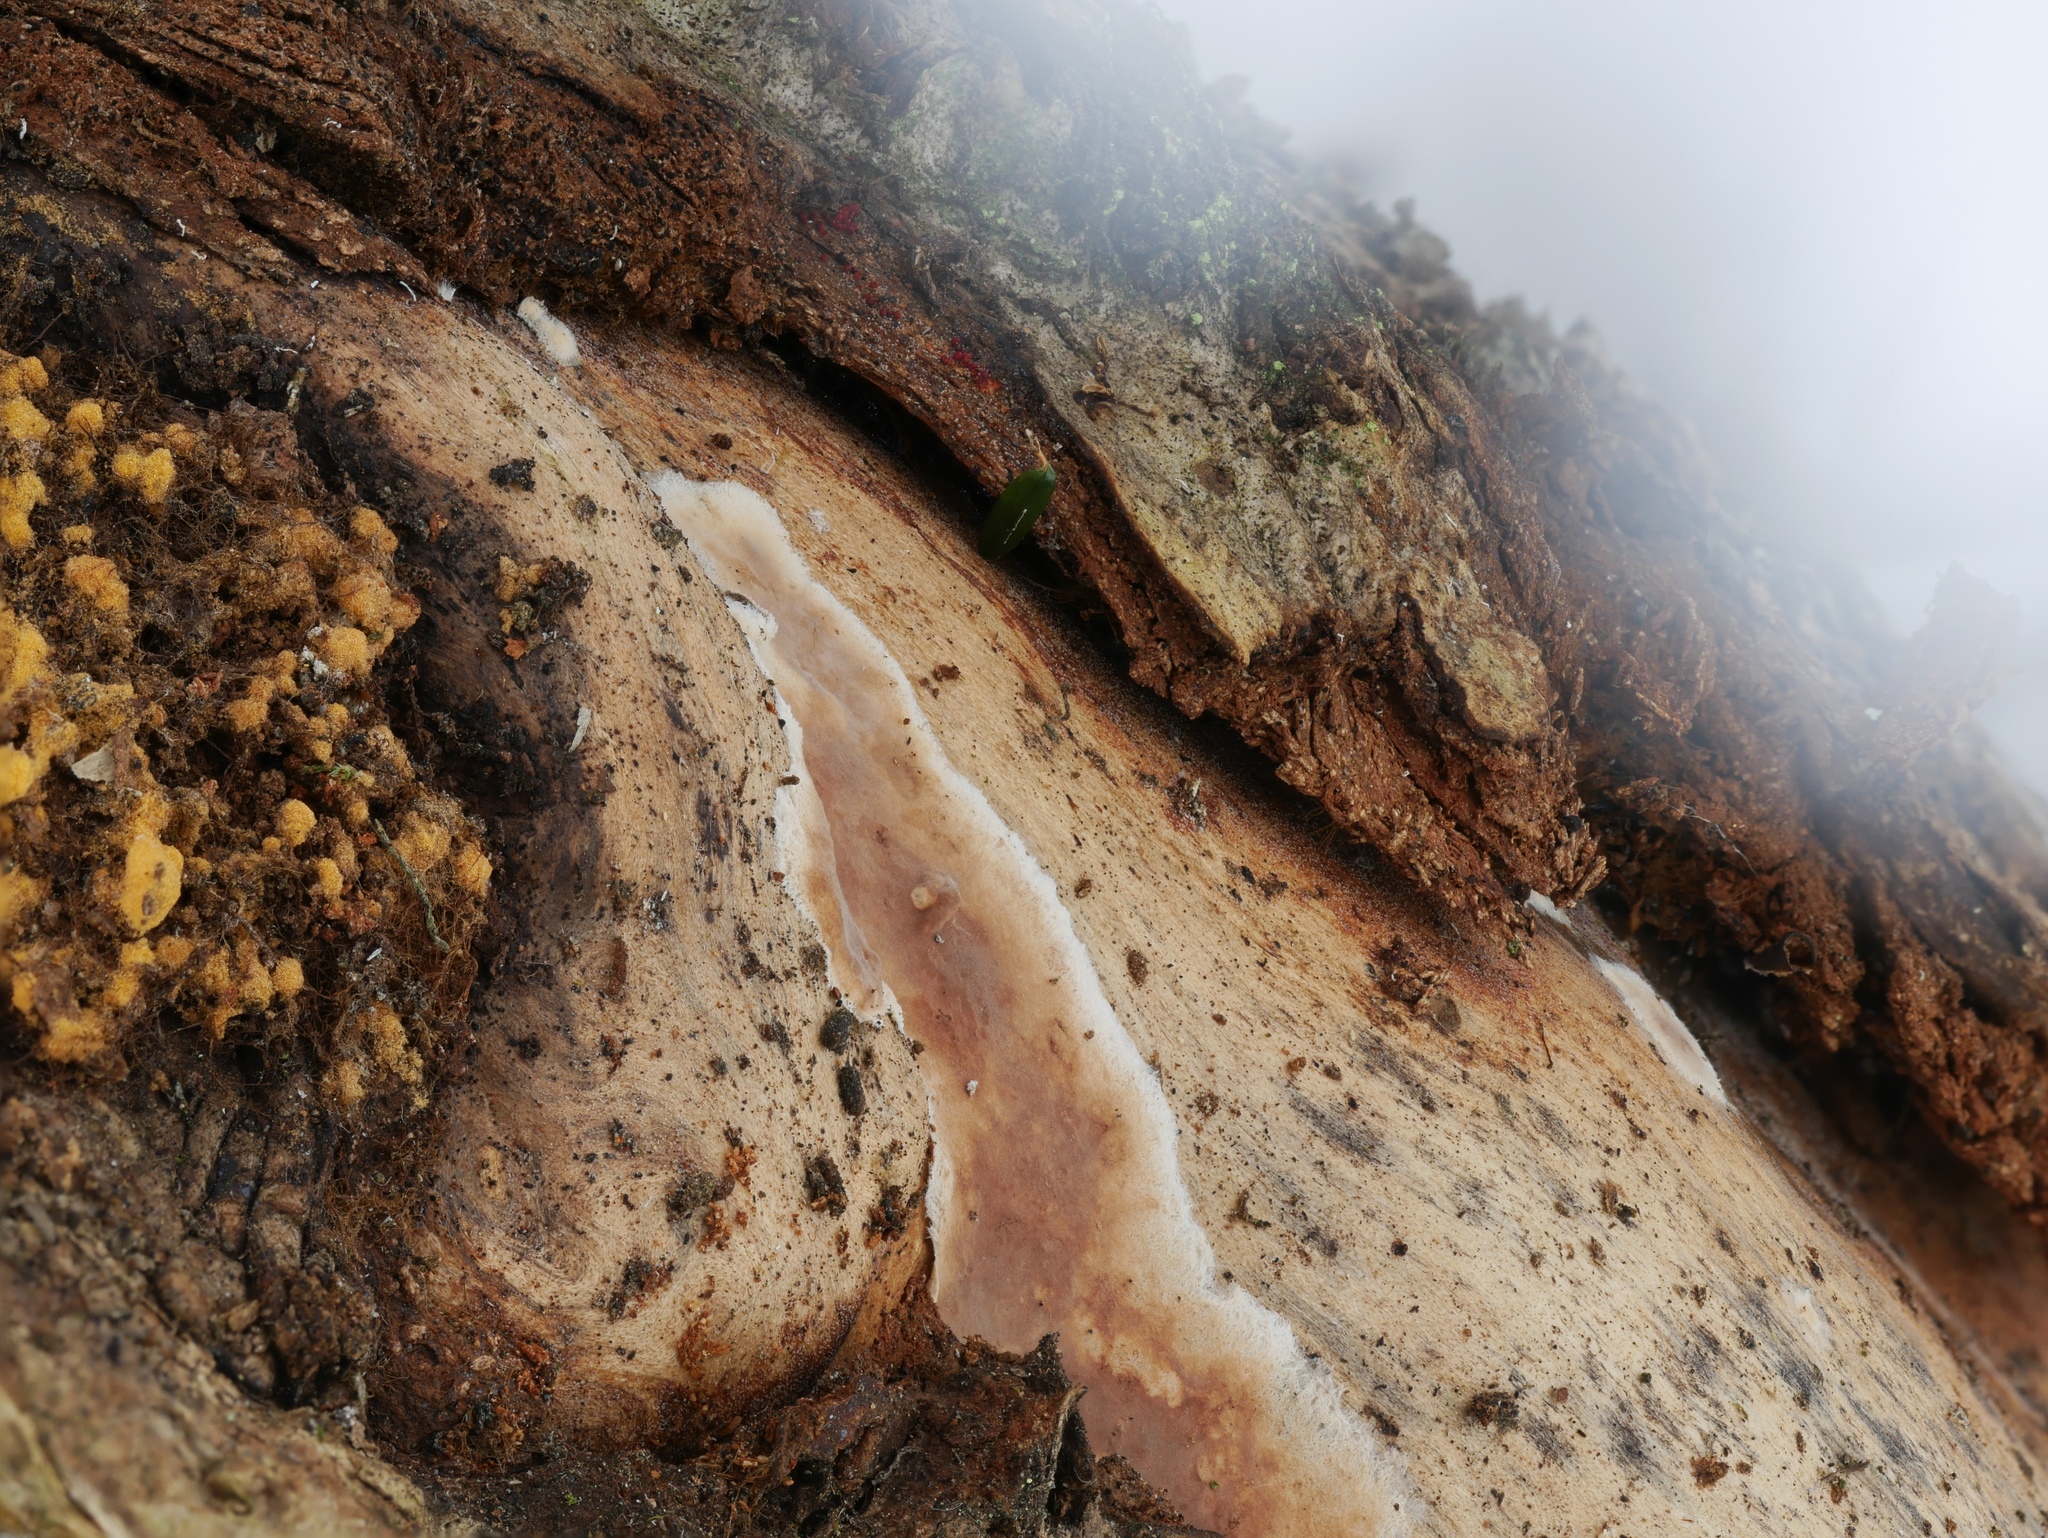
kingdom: Fungi
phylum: Basidiomycota
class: Agaricomycetes
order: Agaricales
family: Pterulaceae
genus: Cerocorticium
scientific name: Cerocorticium roseolum
